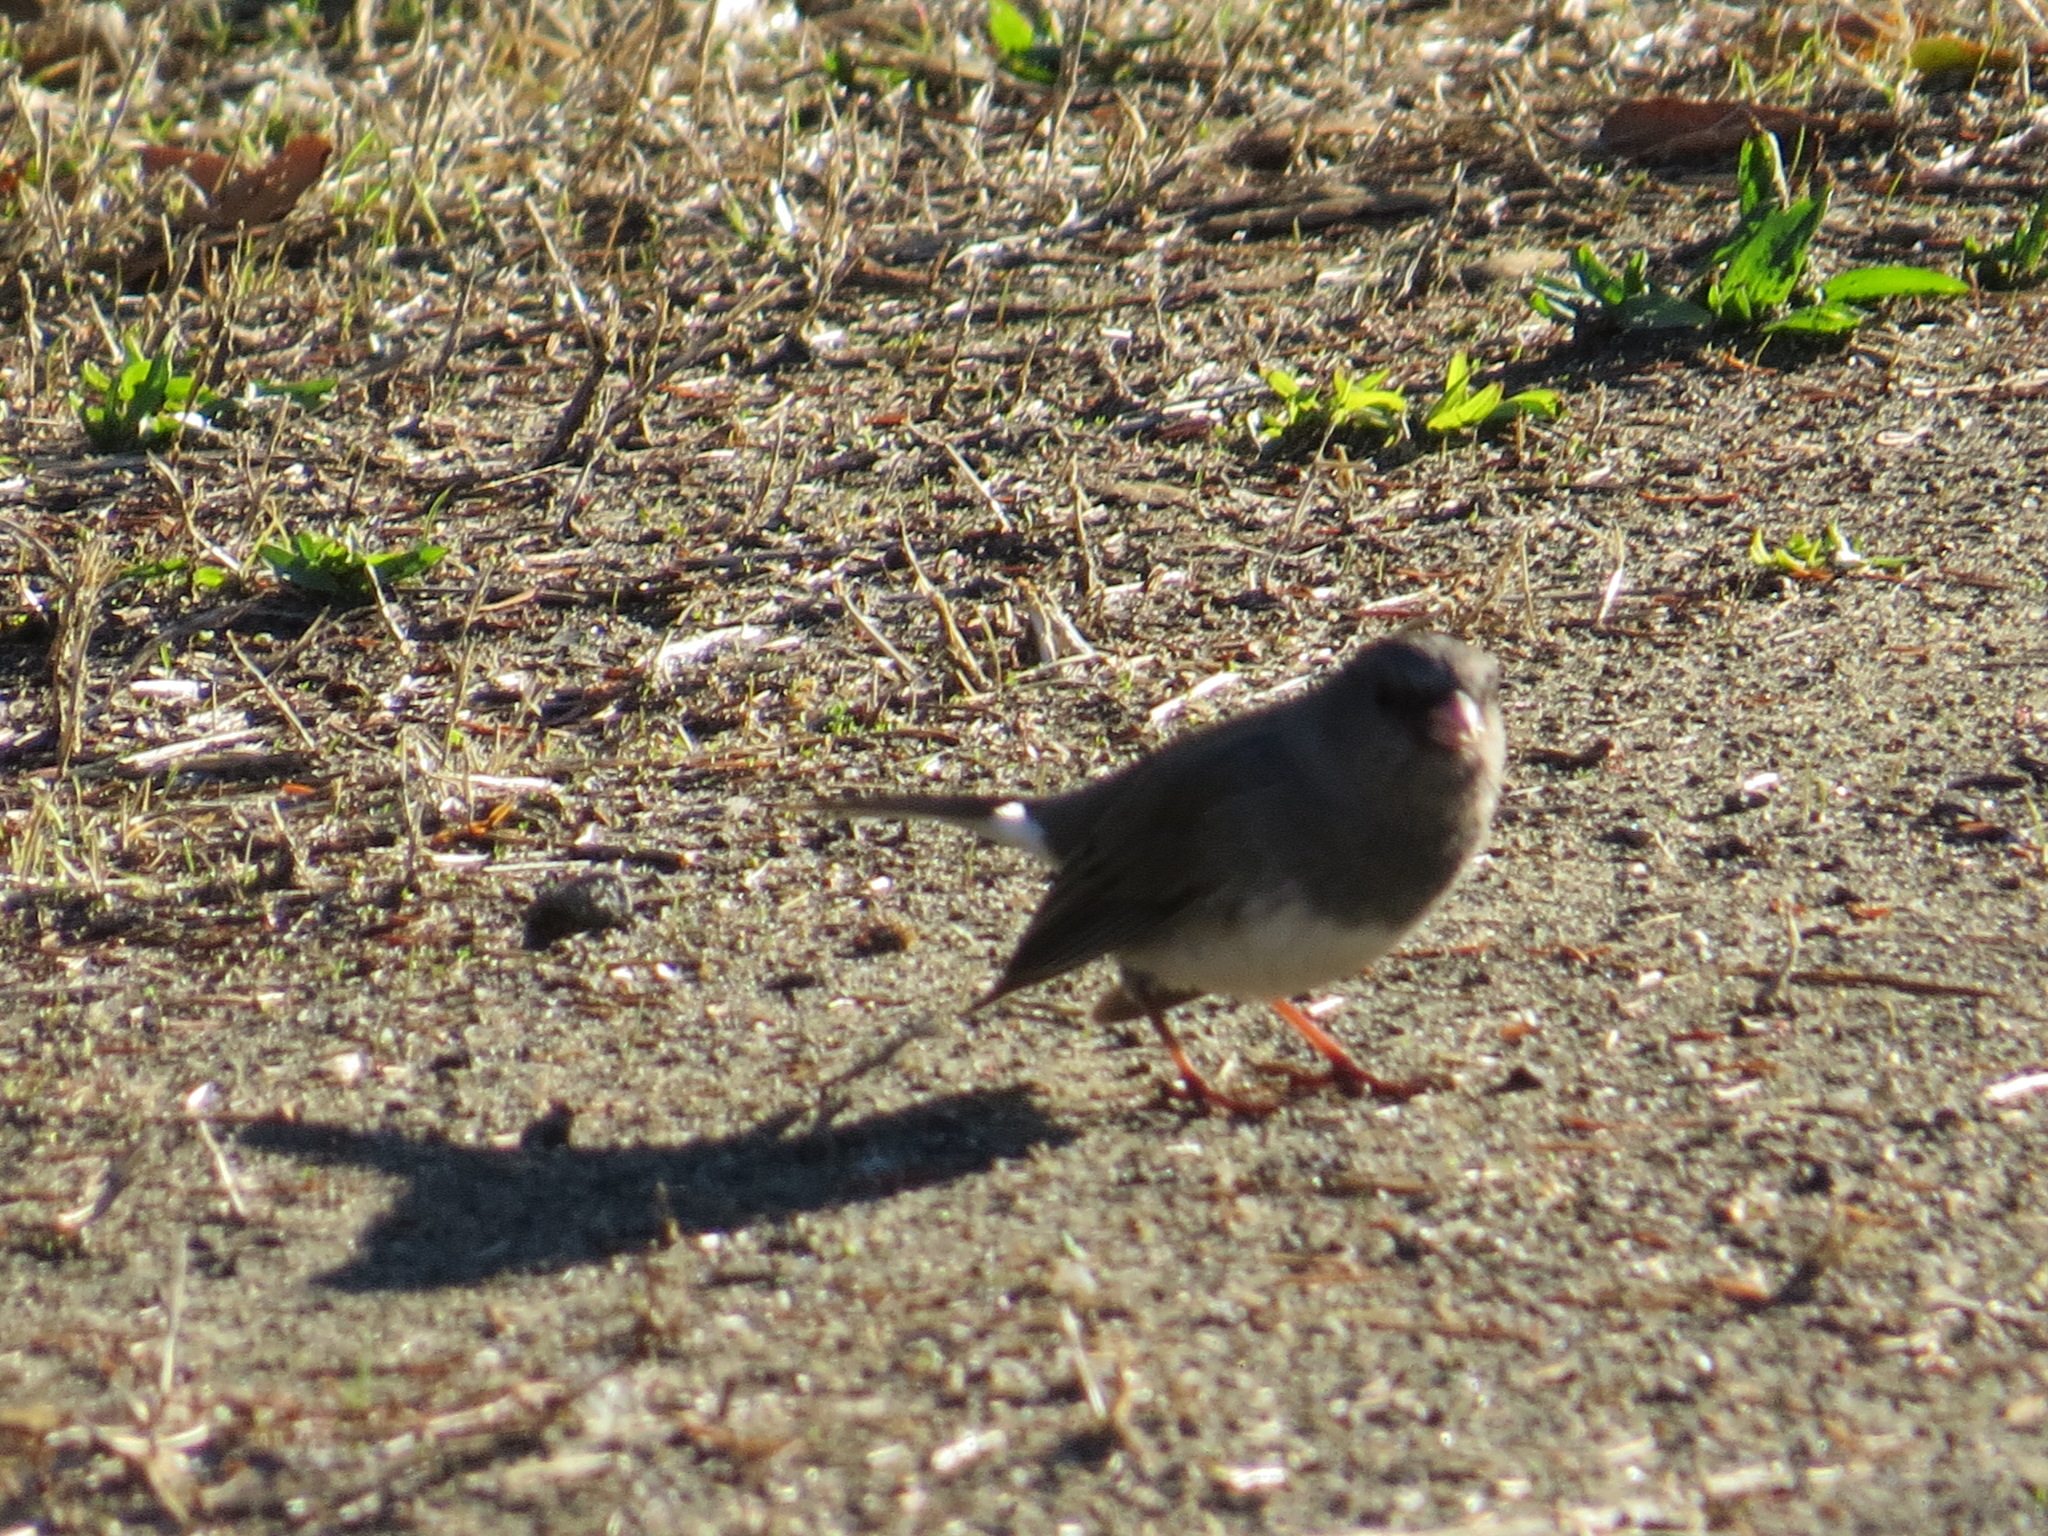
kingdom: Animalia
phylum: Chordata
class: Aves
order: Passeriformes
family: Passerellidae
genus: Junco
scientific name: Junco hyemalis
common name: Dark-eyed junco
